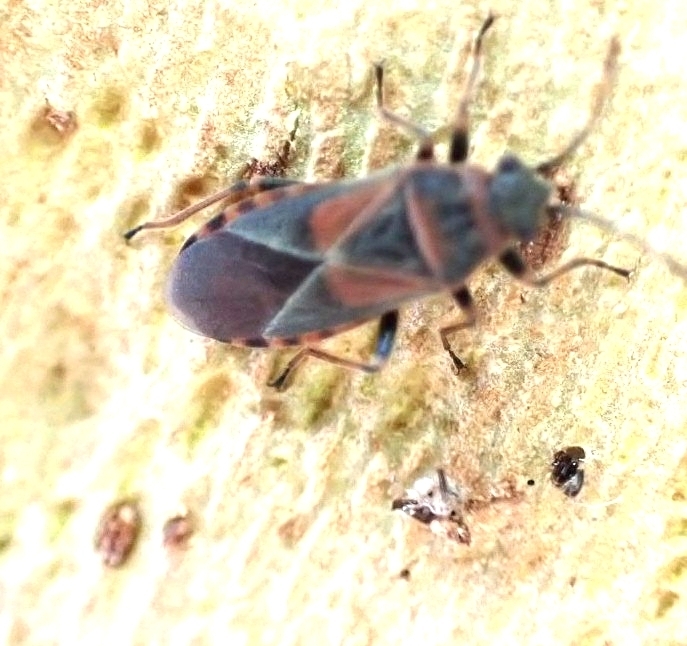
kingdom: Animalia
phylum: Arthropoda
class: Insecta
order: Hemiptera
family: Lygaeidae
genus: Arocatus
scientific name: Arocatus melanocephalus
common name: Lygaeid bug
